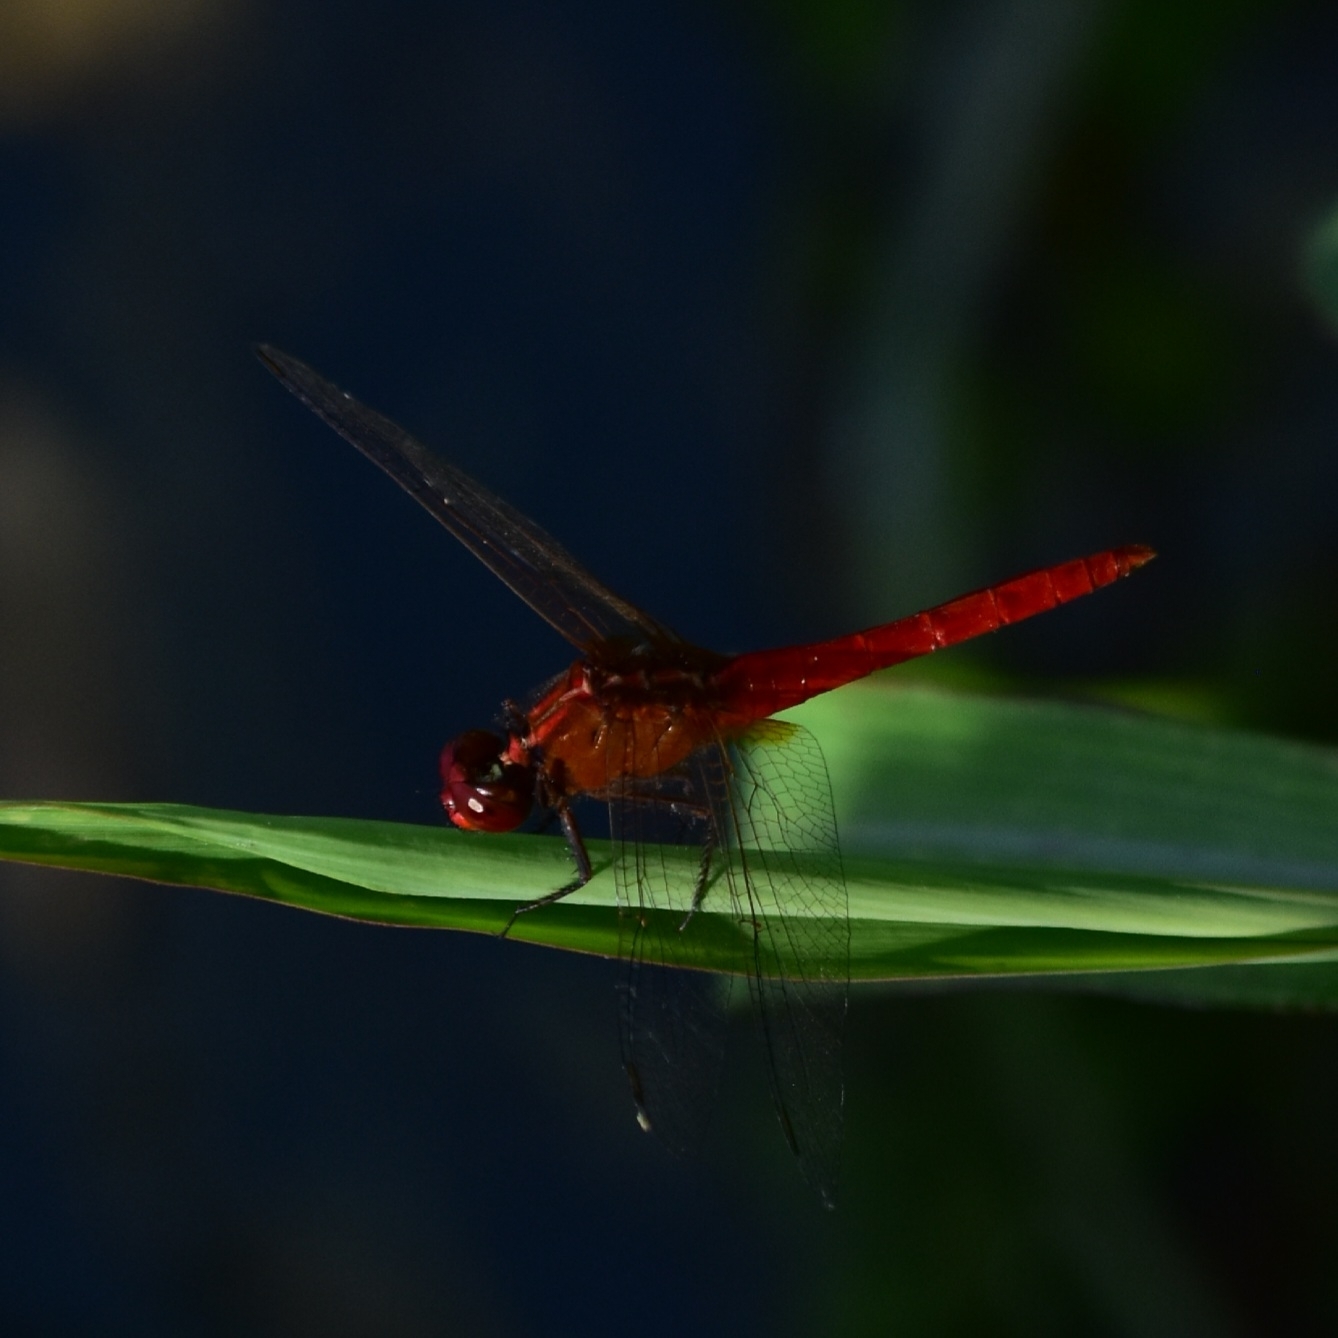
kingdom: Animalia
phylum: Arthropoda
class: Insecta
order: Odonata
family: Libellulidae
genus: Rhodothemis
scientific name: Rhodothemis rufa
